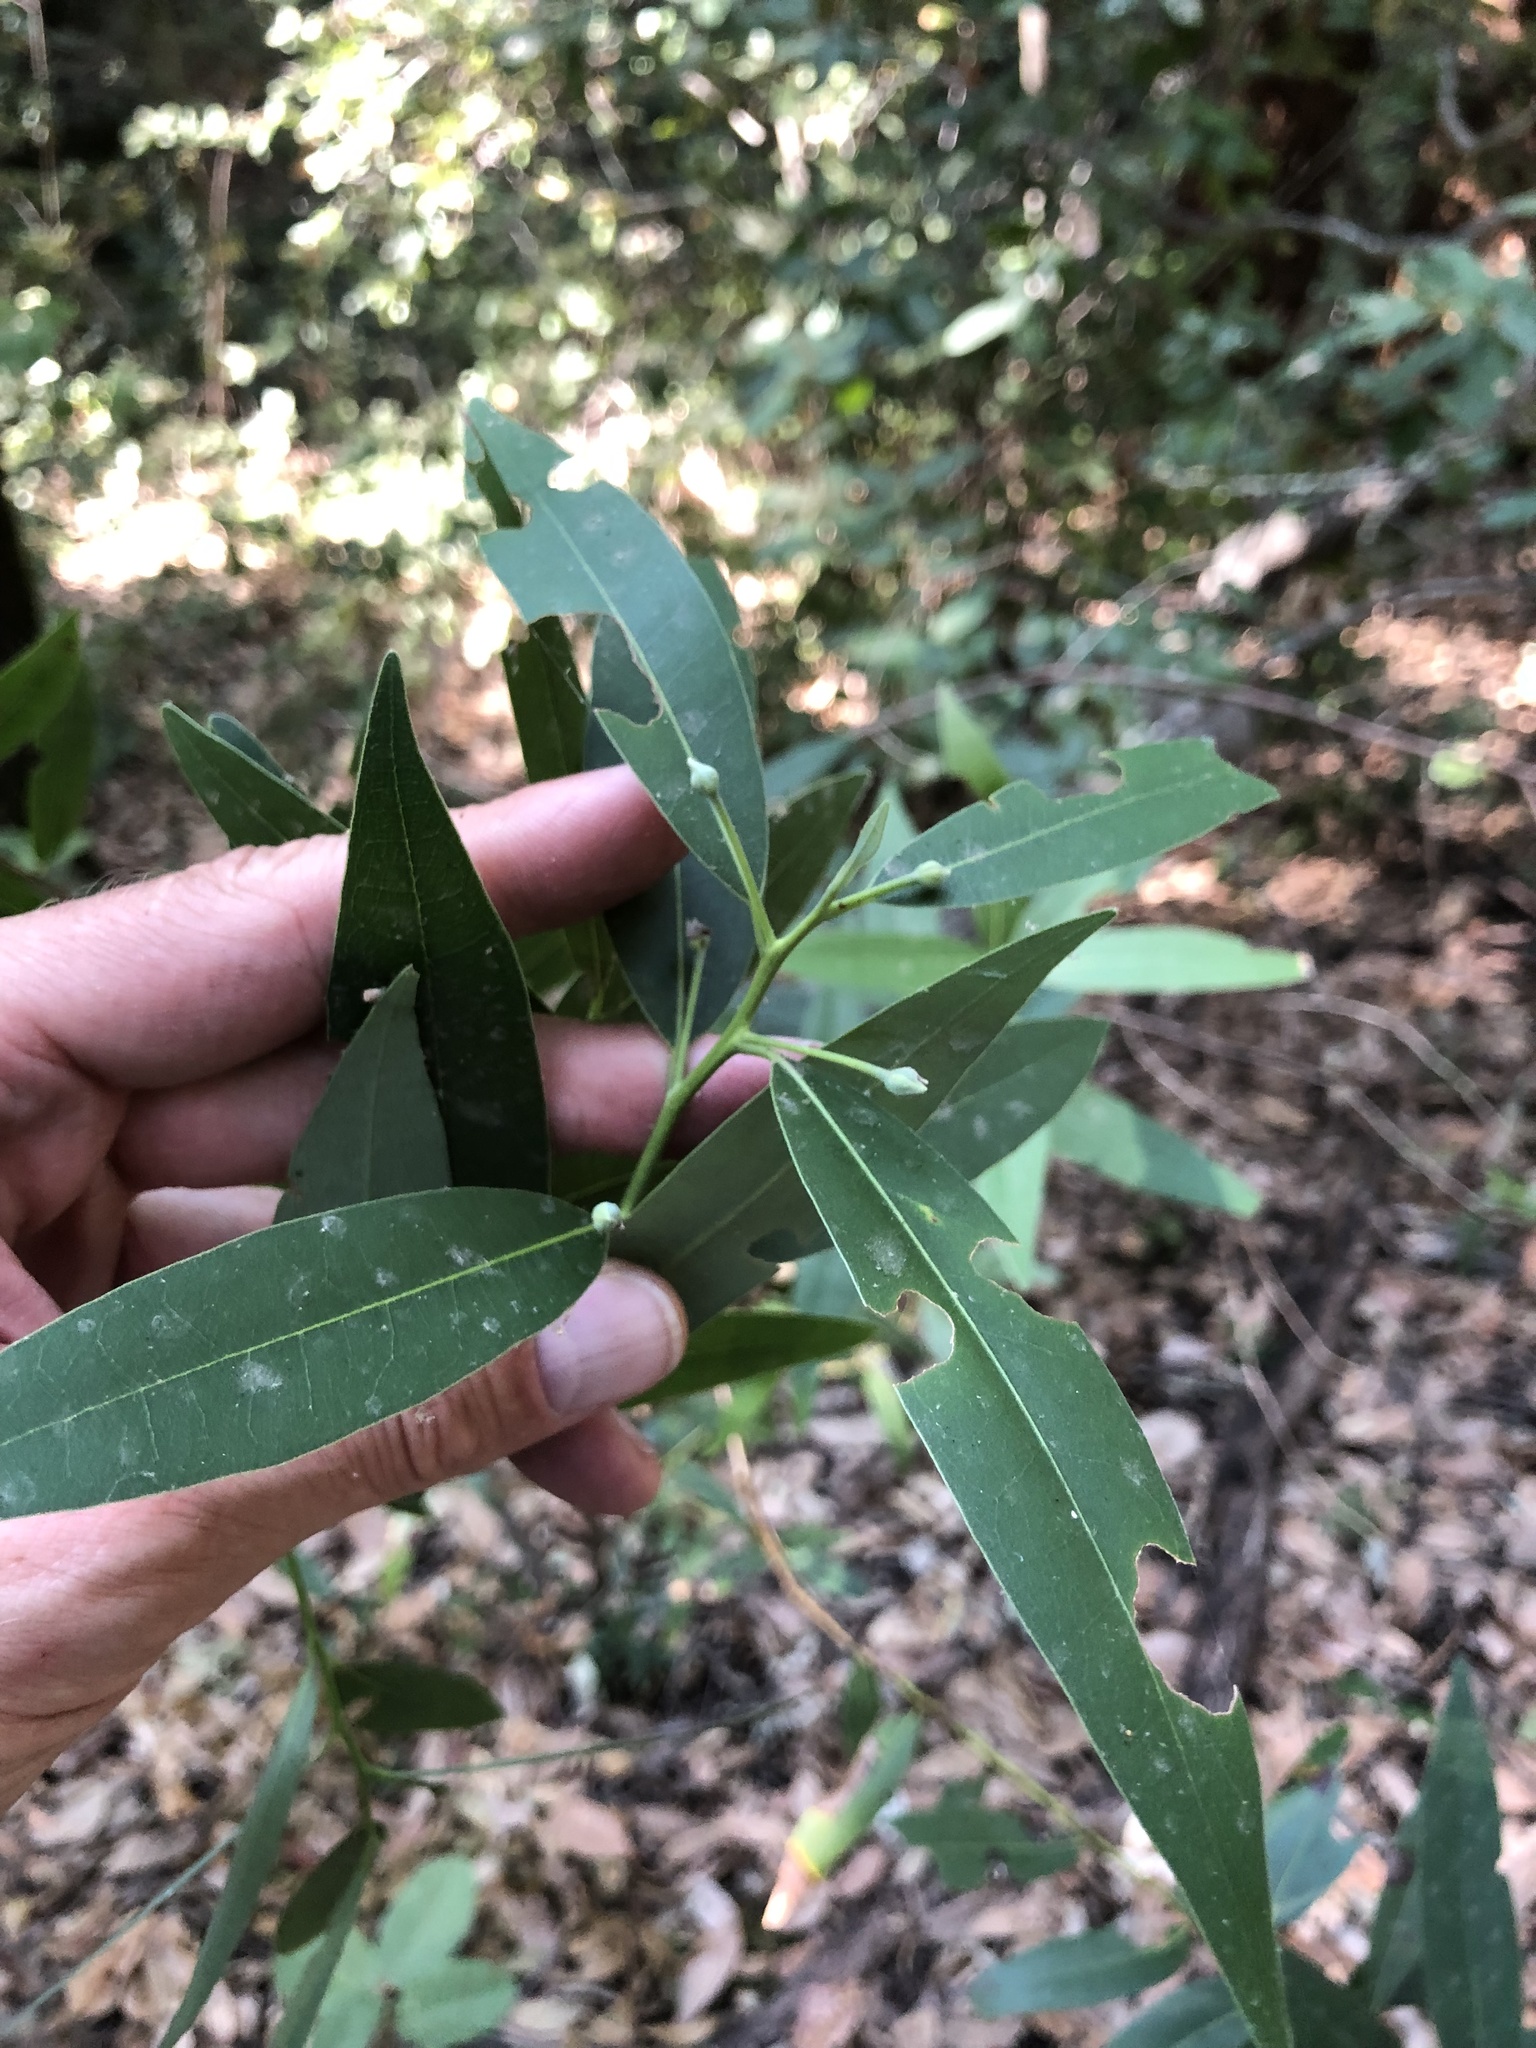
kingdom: Plantae
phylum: Tracheophyta
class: Magnoliopsida
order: Laurales
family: Lauraceae
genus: Umbellularia
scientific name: Umbellularia californica
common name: California bay
